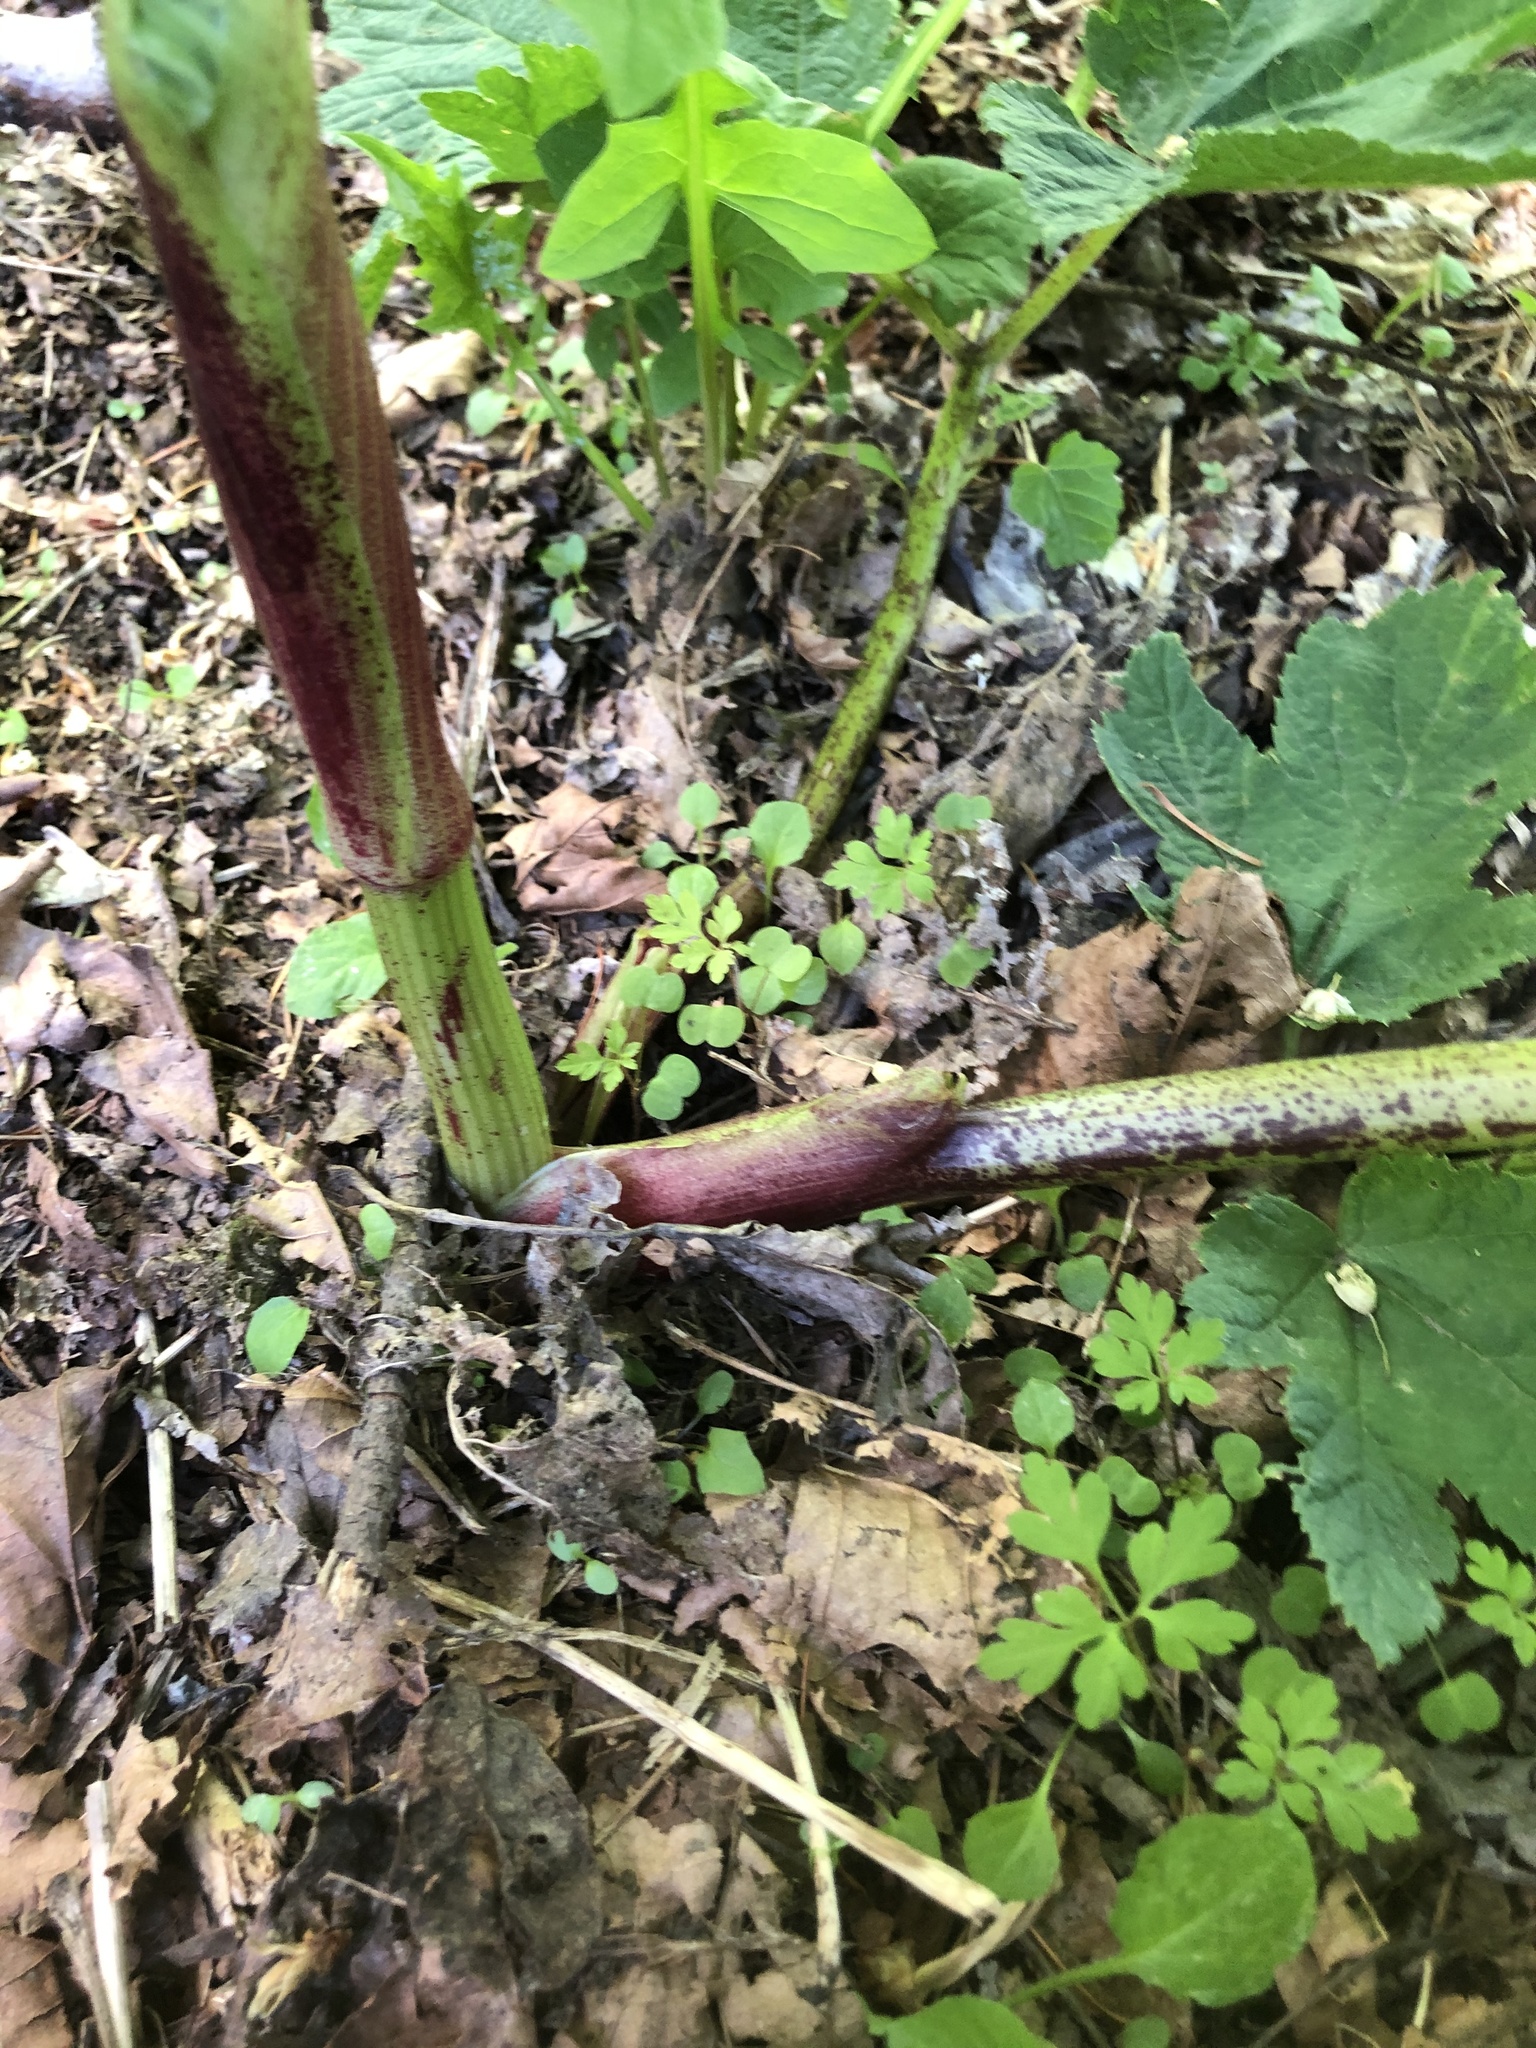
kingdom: Plantae
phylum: Tracheophyta
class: Magnoliopsida
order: Apiales
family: Apiaceae
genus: Heracleum
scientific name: Heracleum maximum
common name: American cow parsnip
